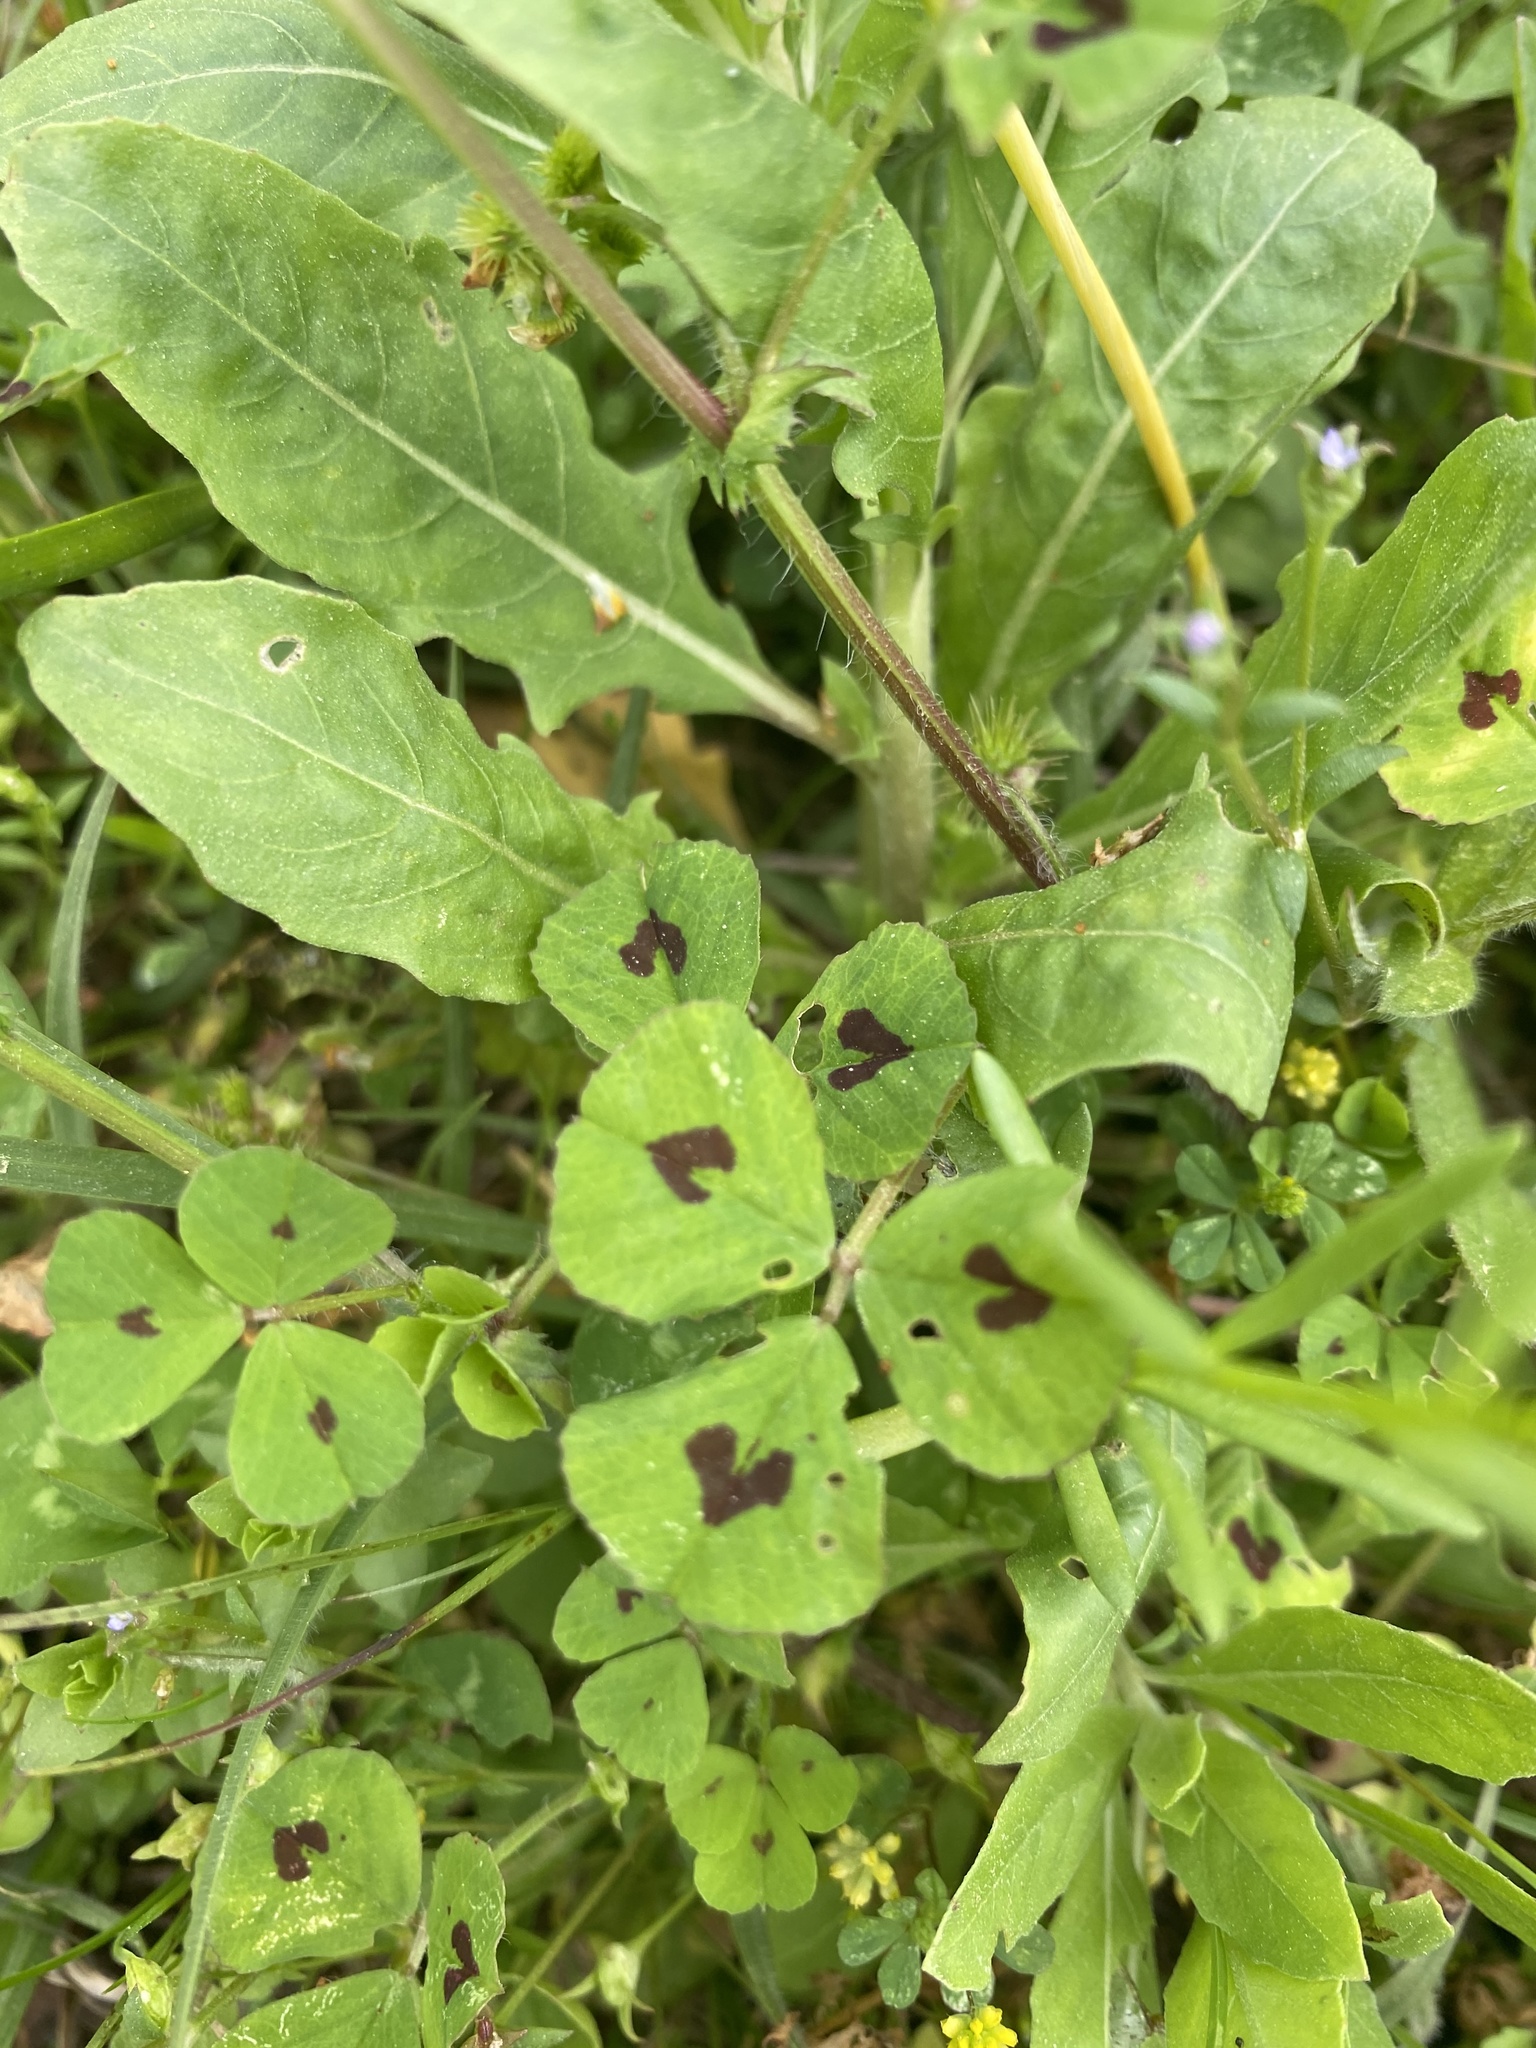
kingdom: Plantae
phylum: Tracheophyta
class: Magnoliopsida
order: Fabales
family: Fabaceae
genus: Medicago
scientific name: Medicago arabica
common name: Spotted medick
